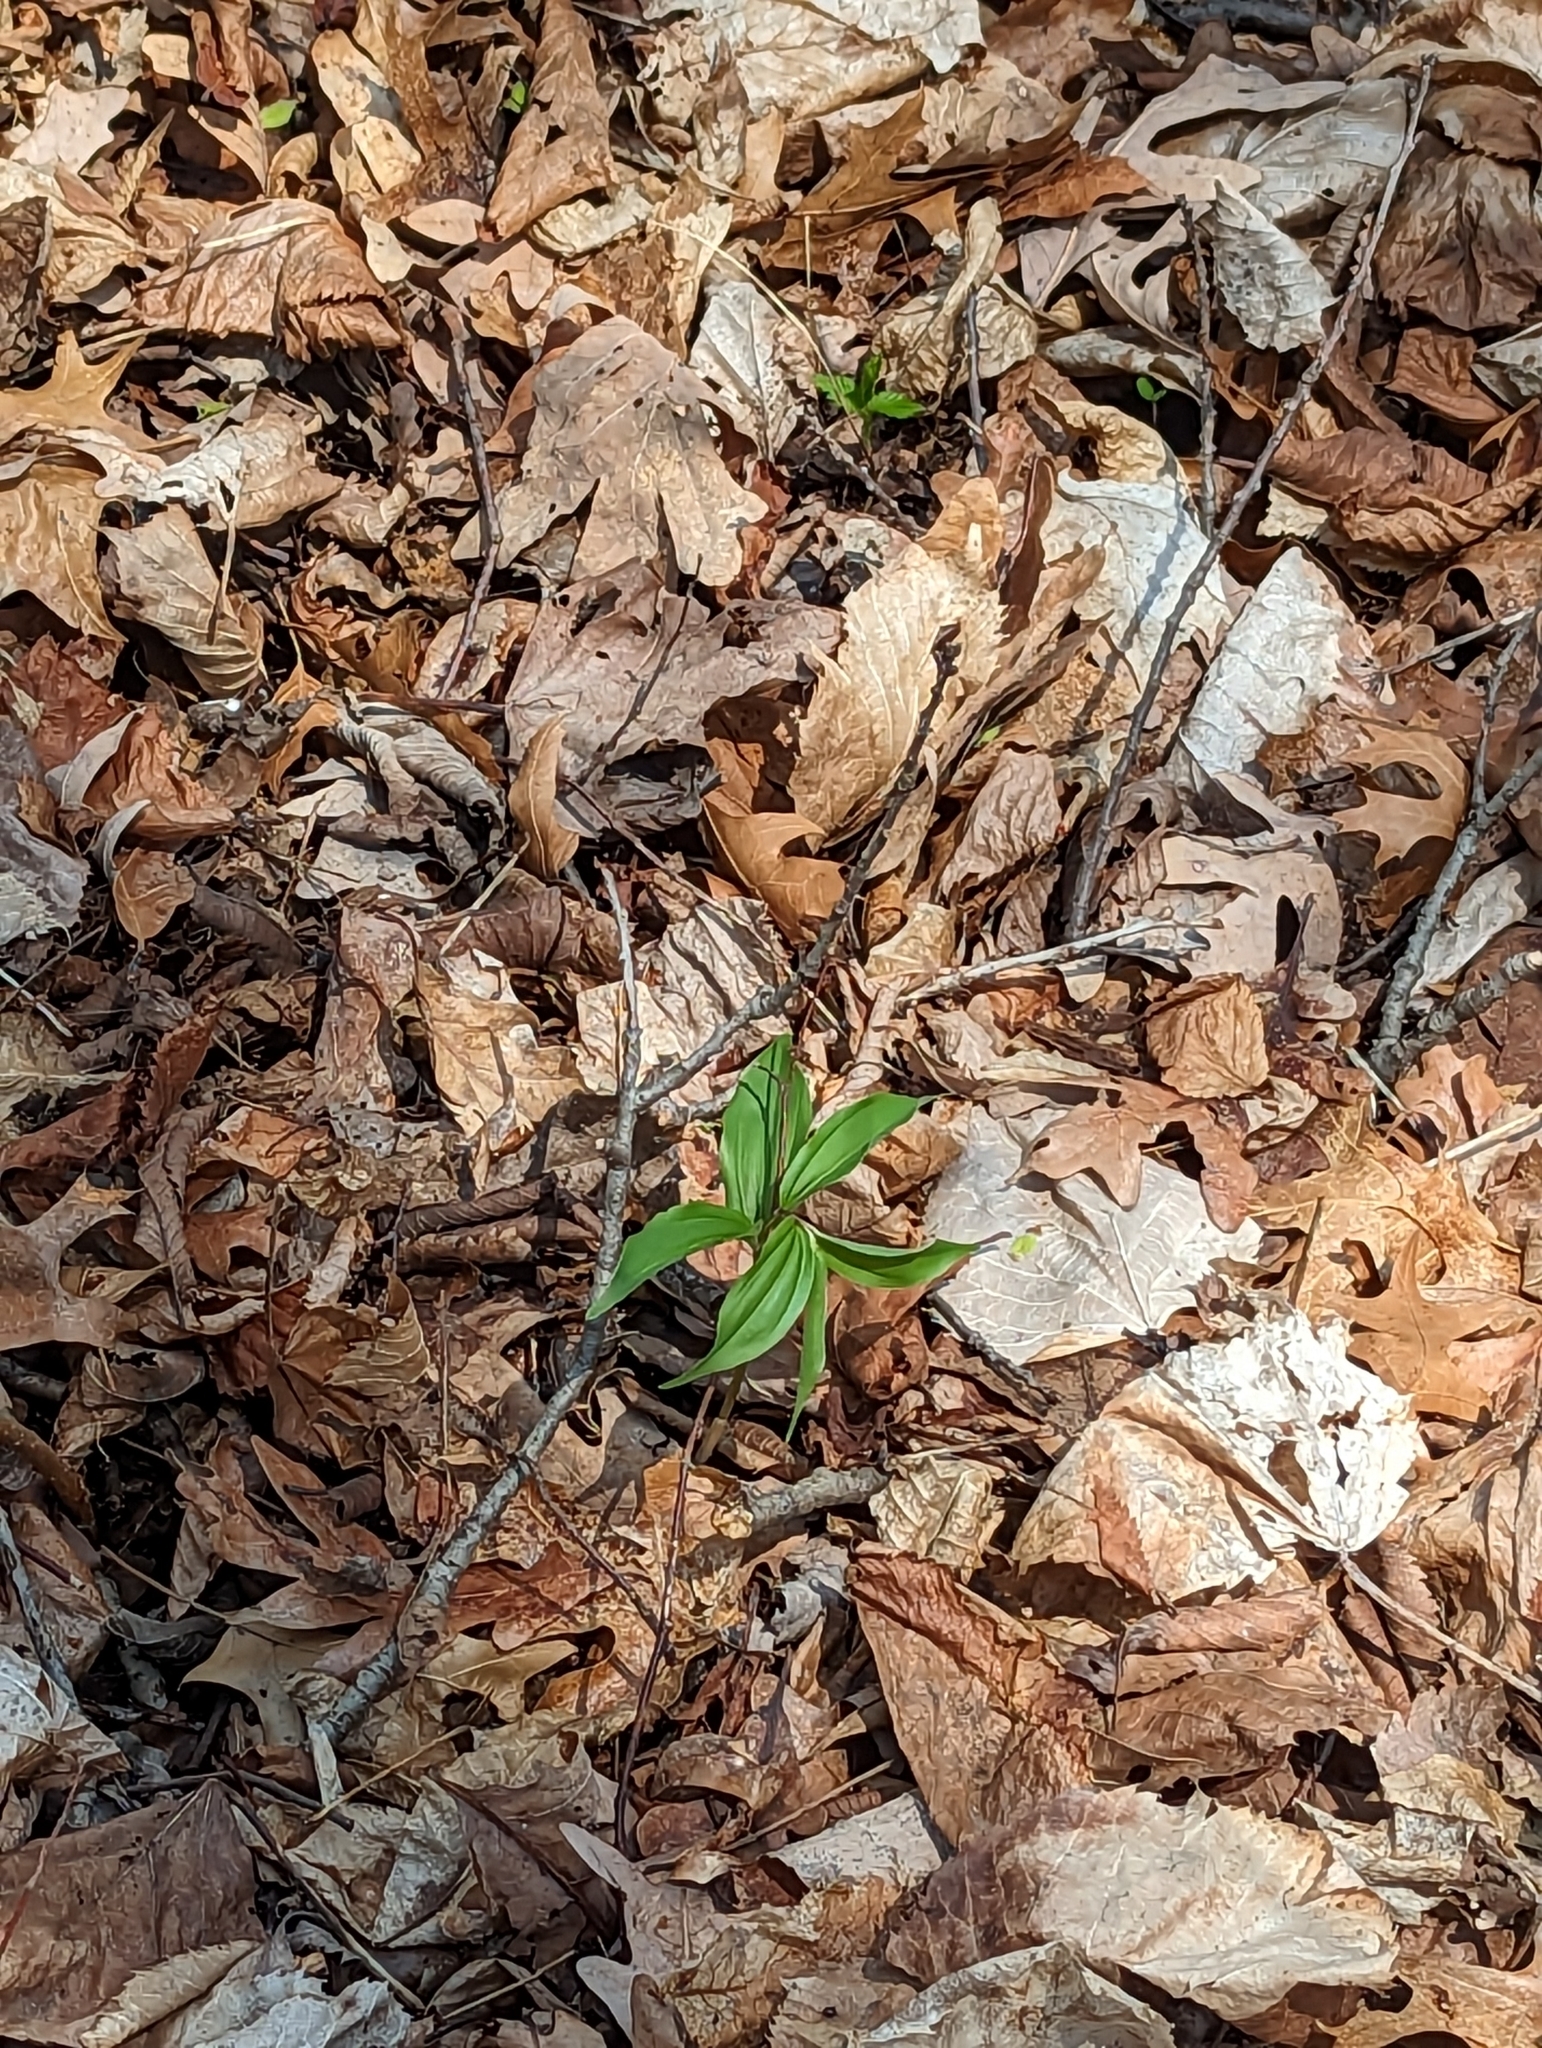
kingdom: Plantae
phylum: Tracheophyta
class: Liliopsida
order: Asparagales
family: Asparagaceae
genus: Maianthemum
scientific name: Maianthemum racemosum
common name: False spikenard
